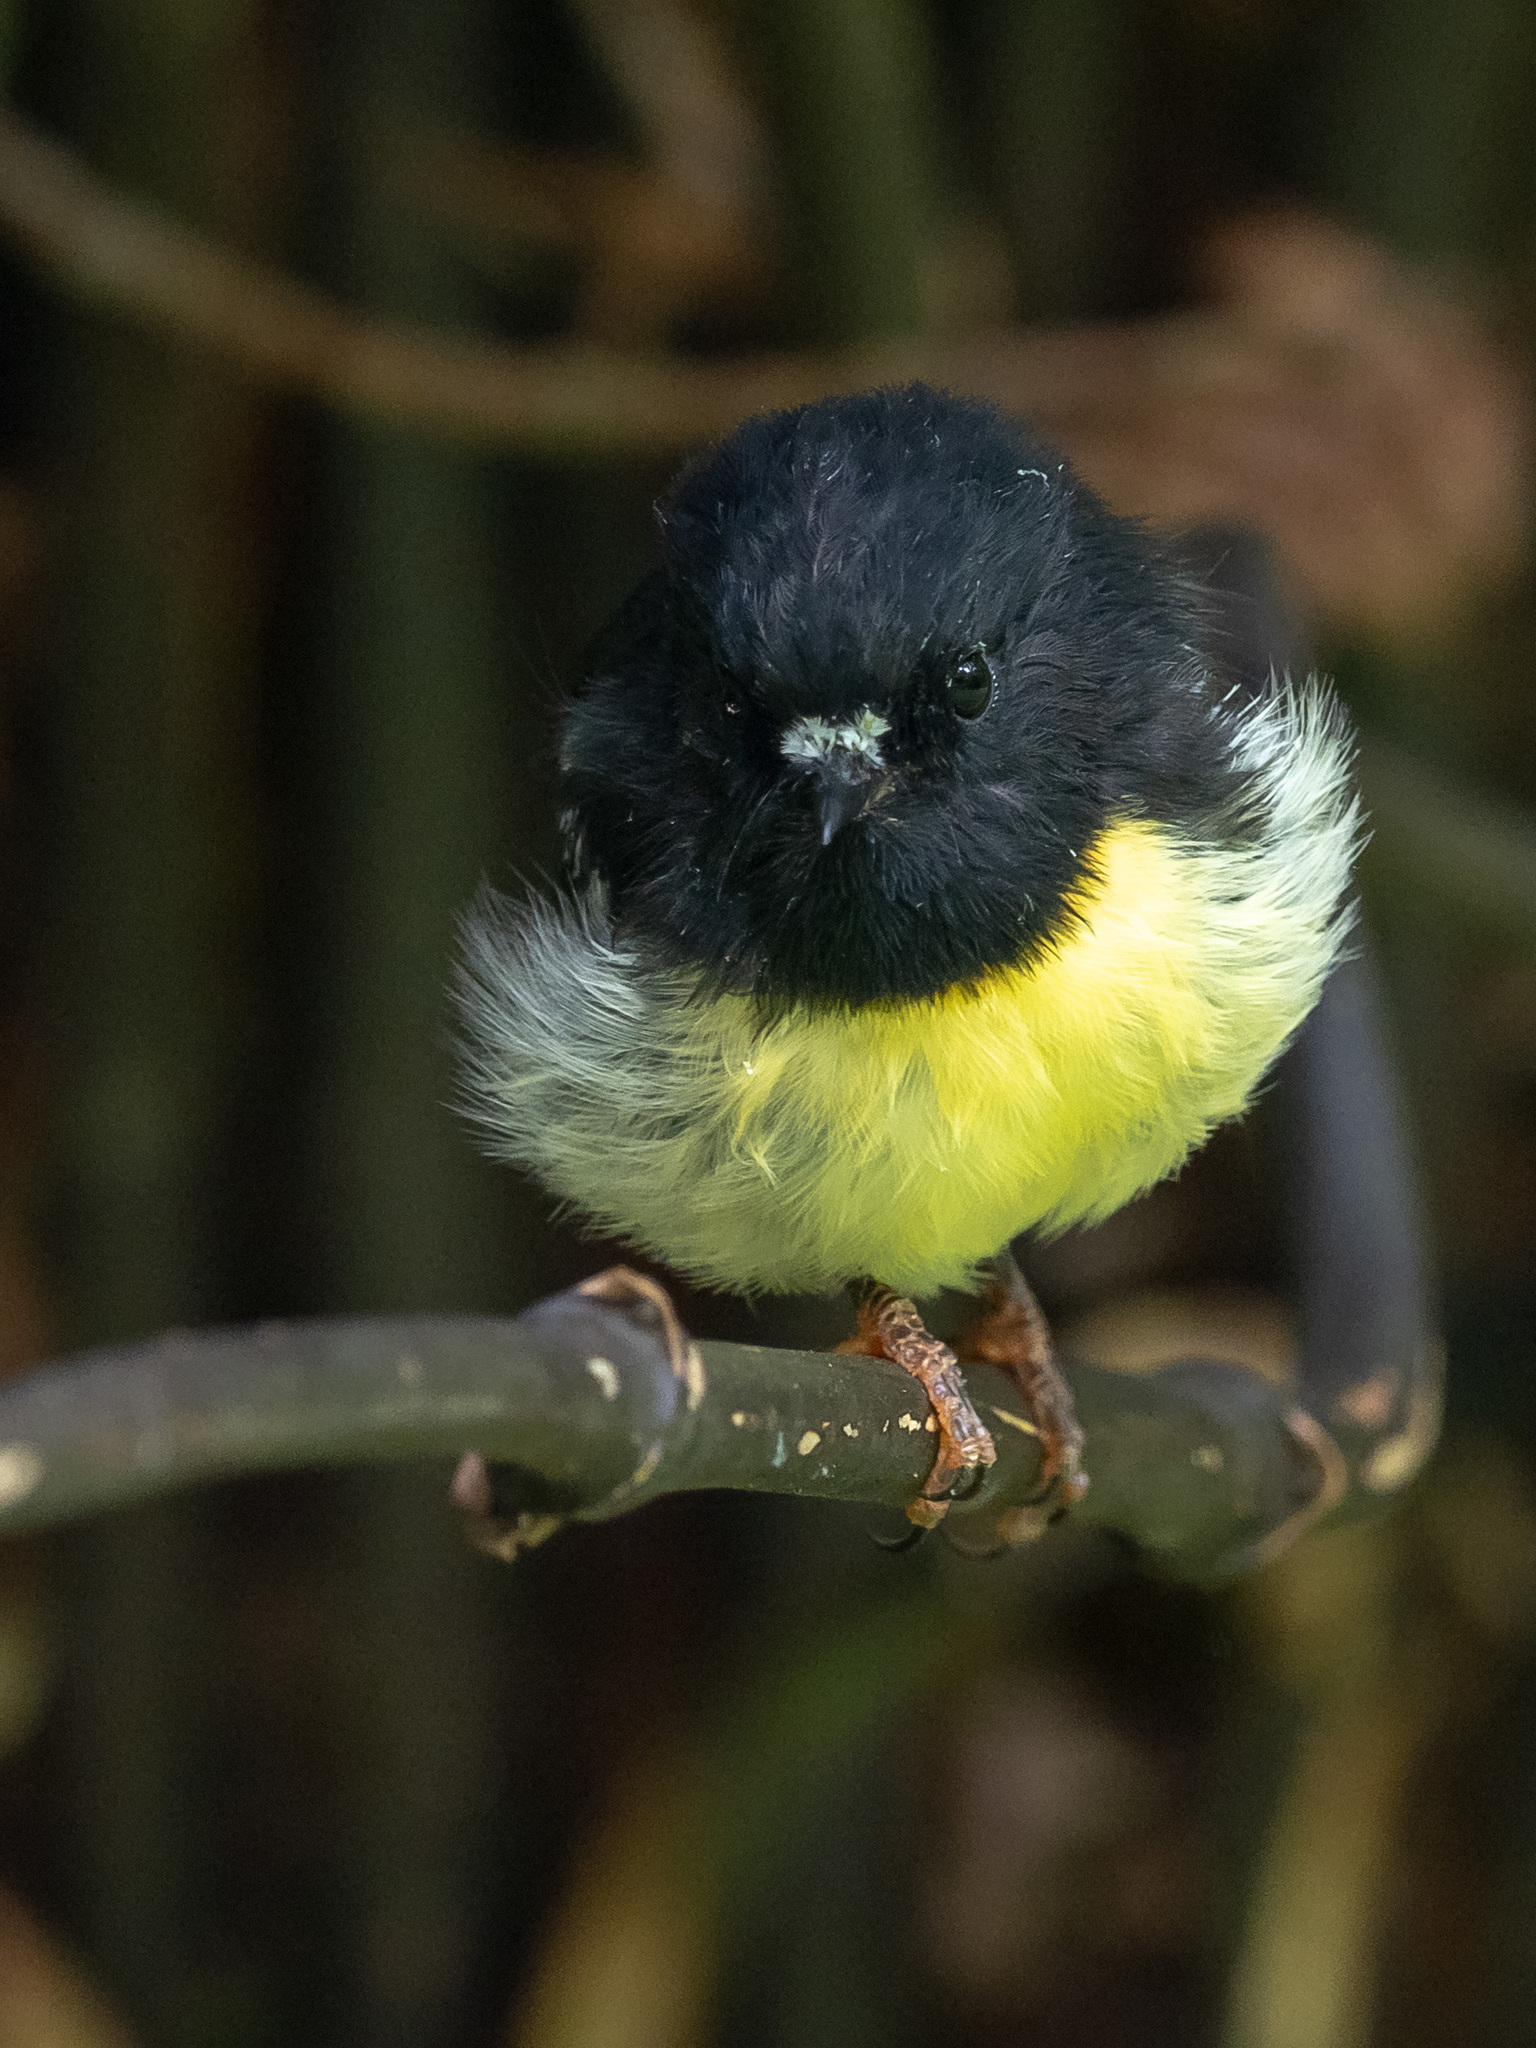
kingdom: Animalia
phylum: Chordata
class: Aves
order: Passeriformes
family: Petroicidae
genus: Petroica
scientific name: Petroica macrocephala
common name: Tomtit
